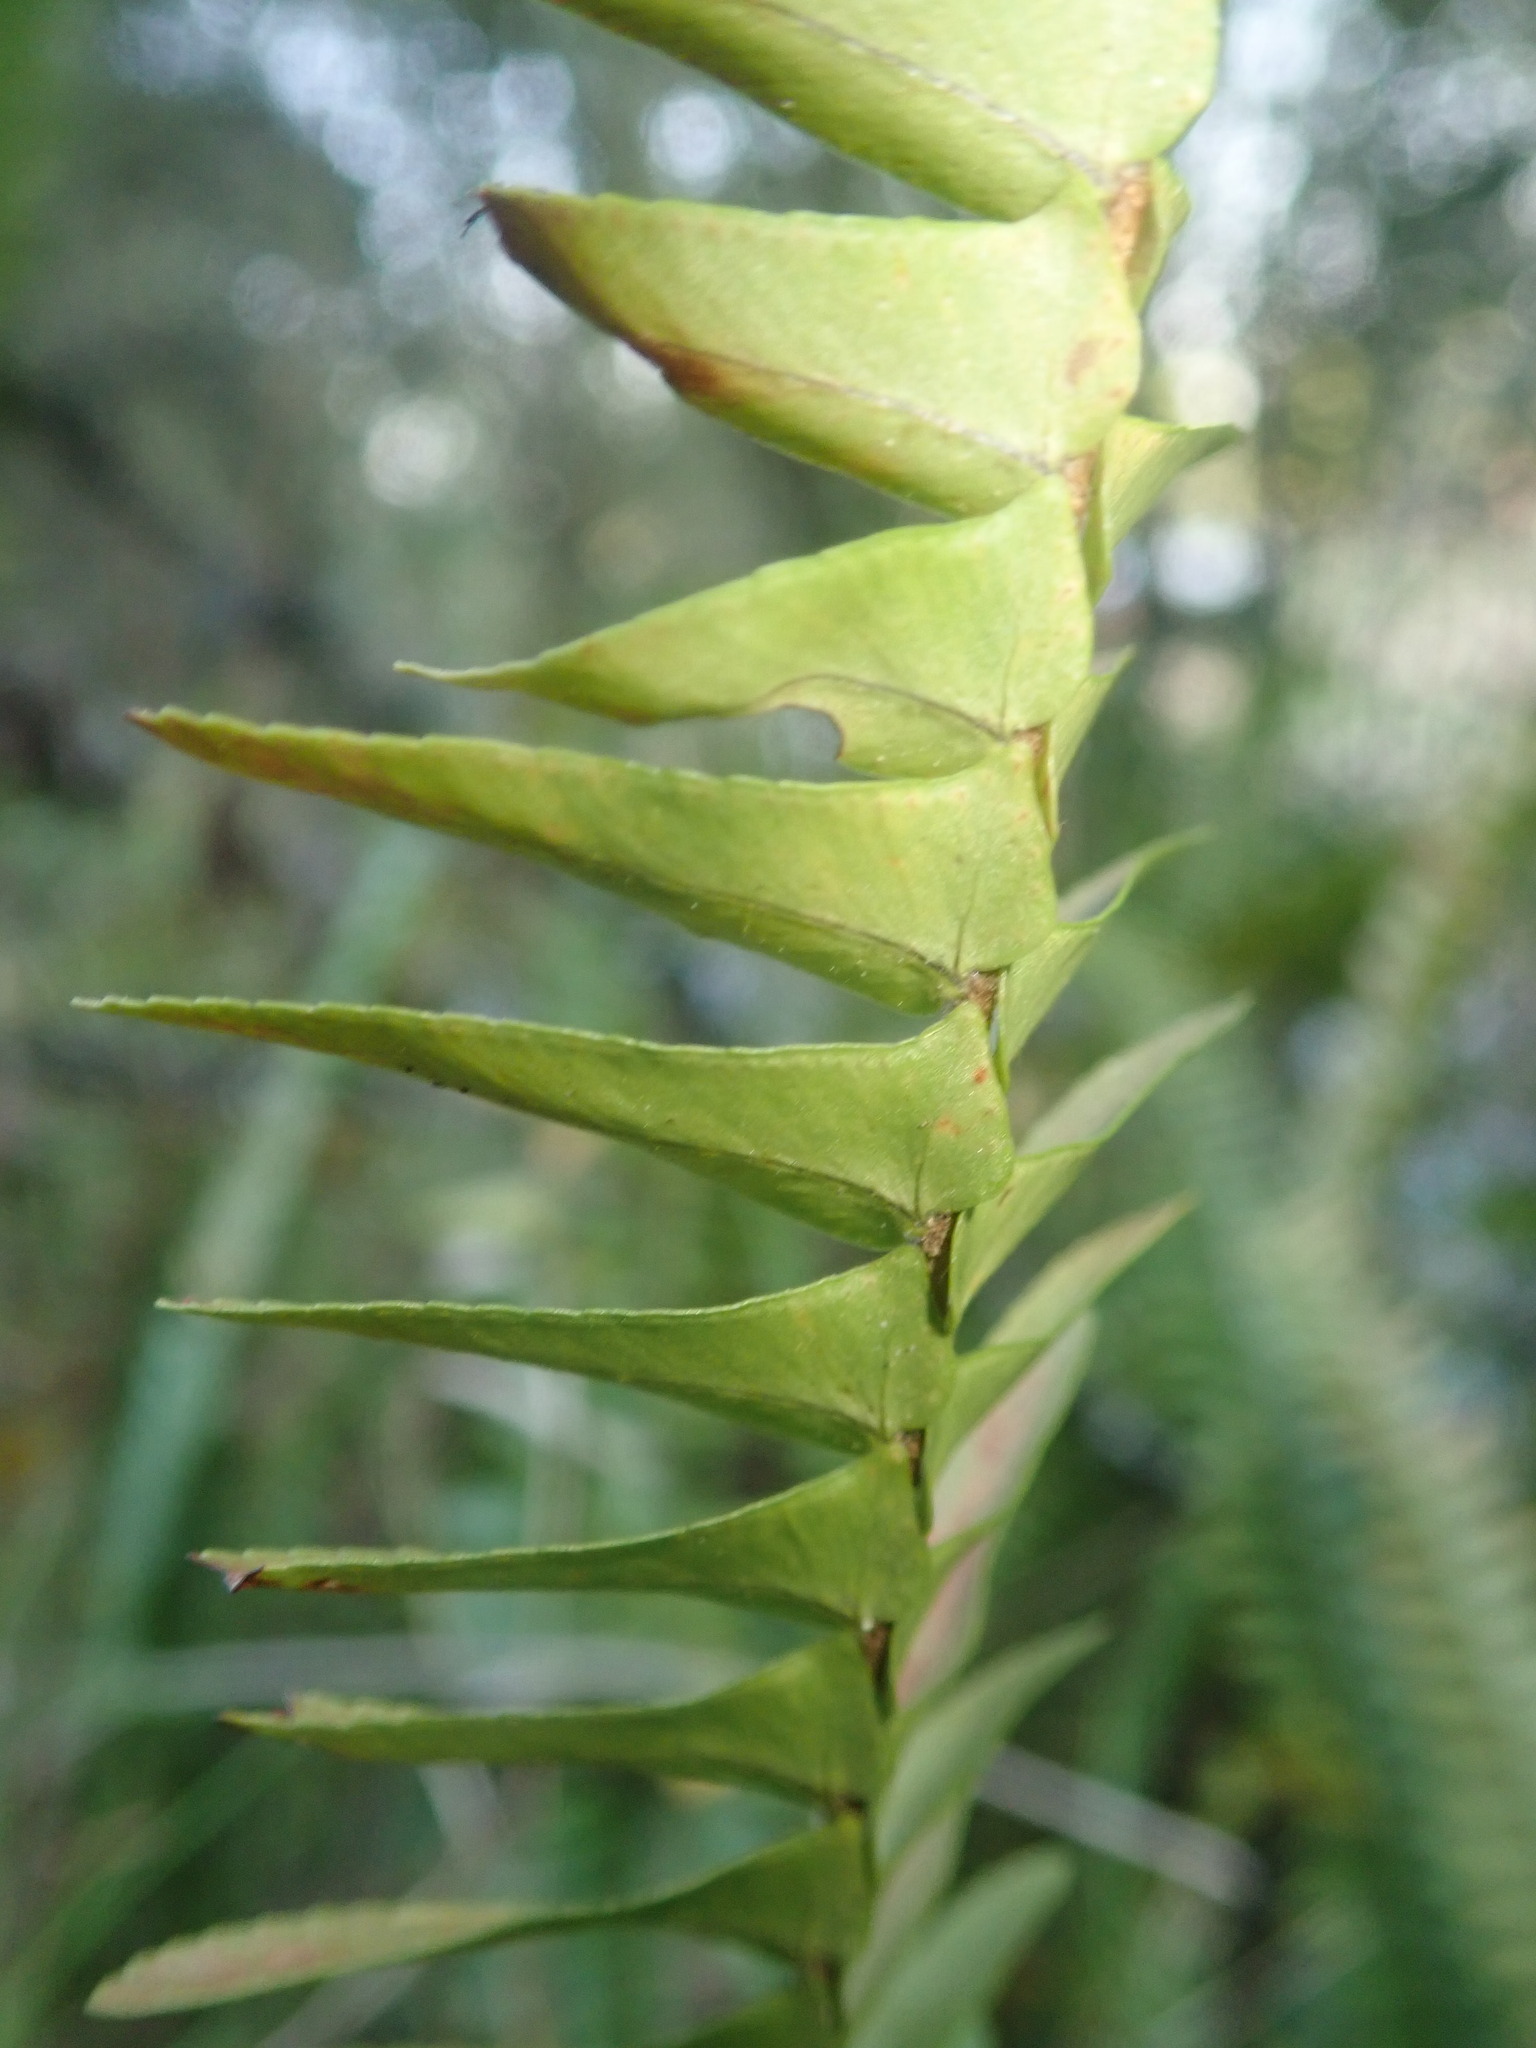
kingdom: Plantae
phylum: Tracheophyta
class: Polypodiopsida
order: Polypodiales
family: Nephrolepidaceae
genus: Nephrolepis
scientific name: Nephrolepis cordifolia
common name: Narrow swordfern
